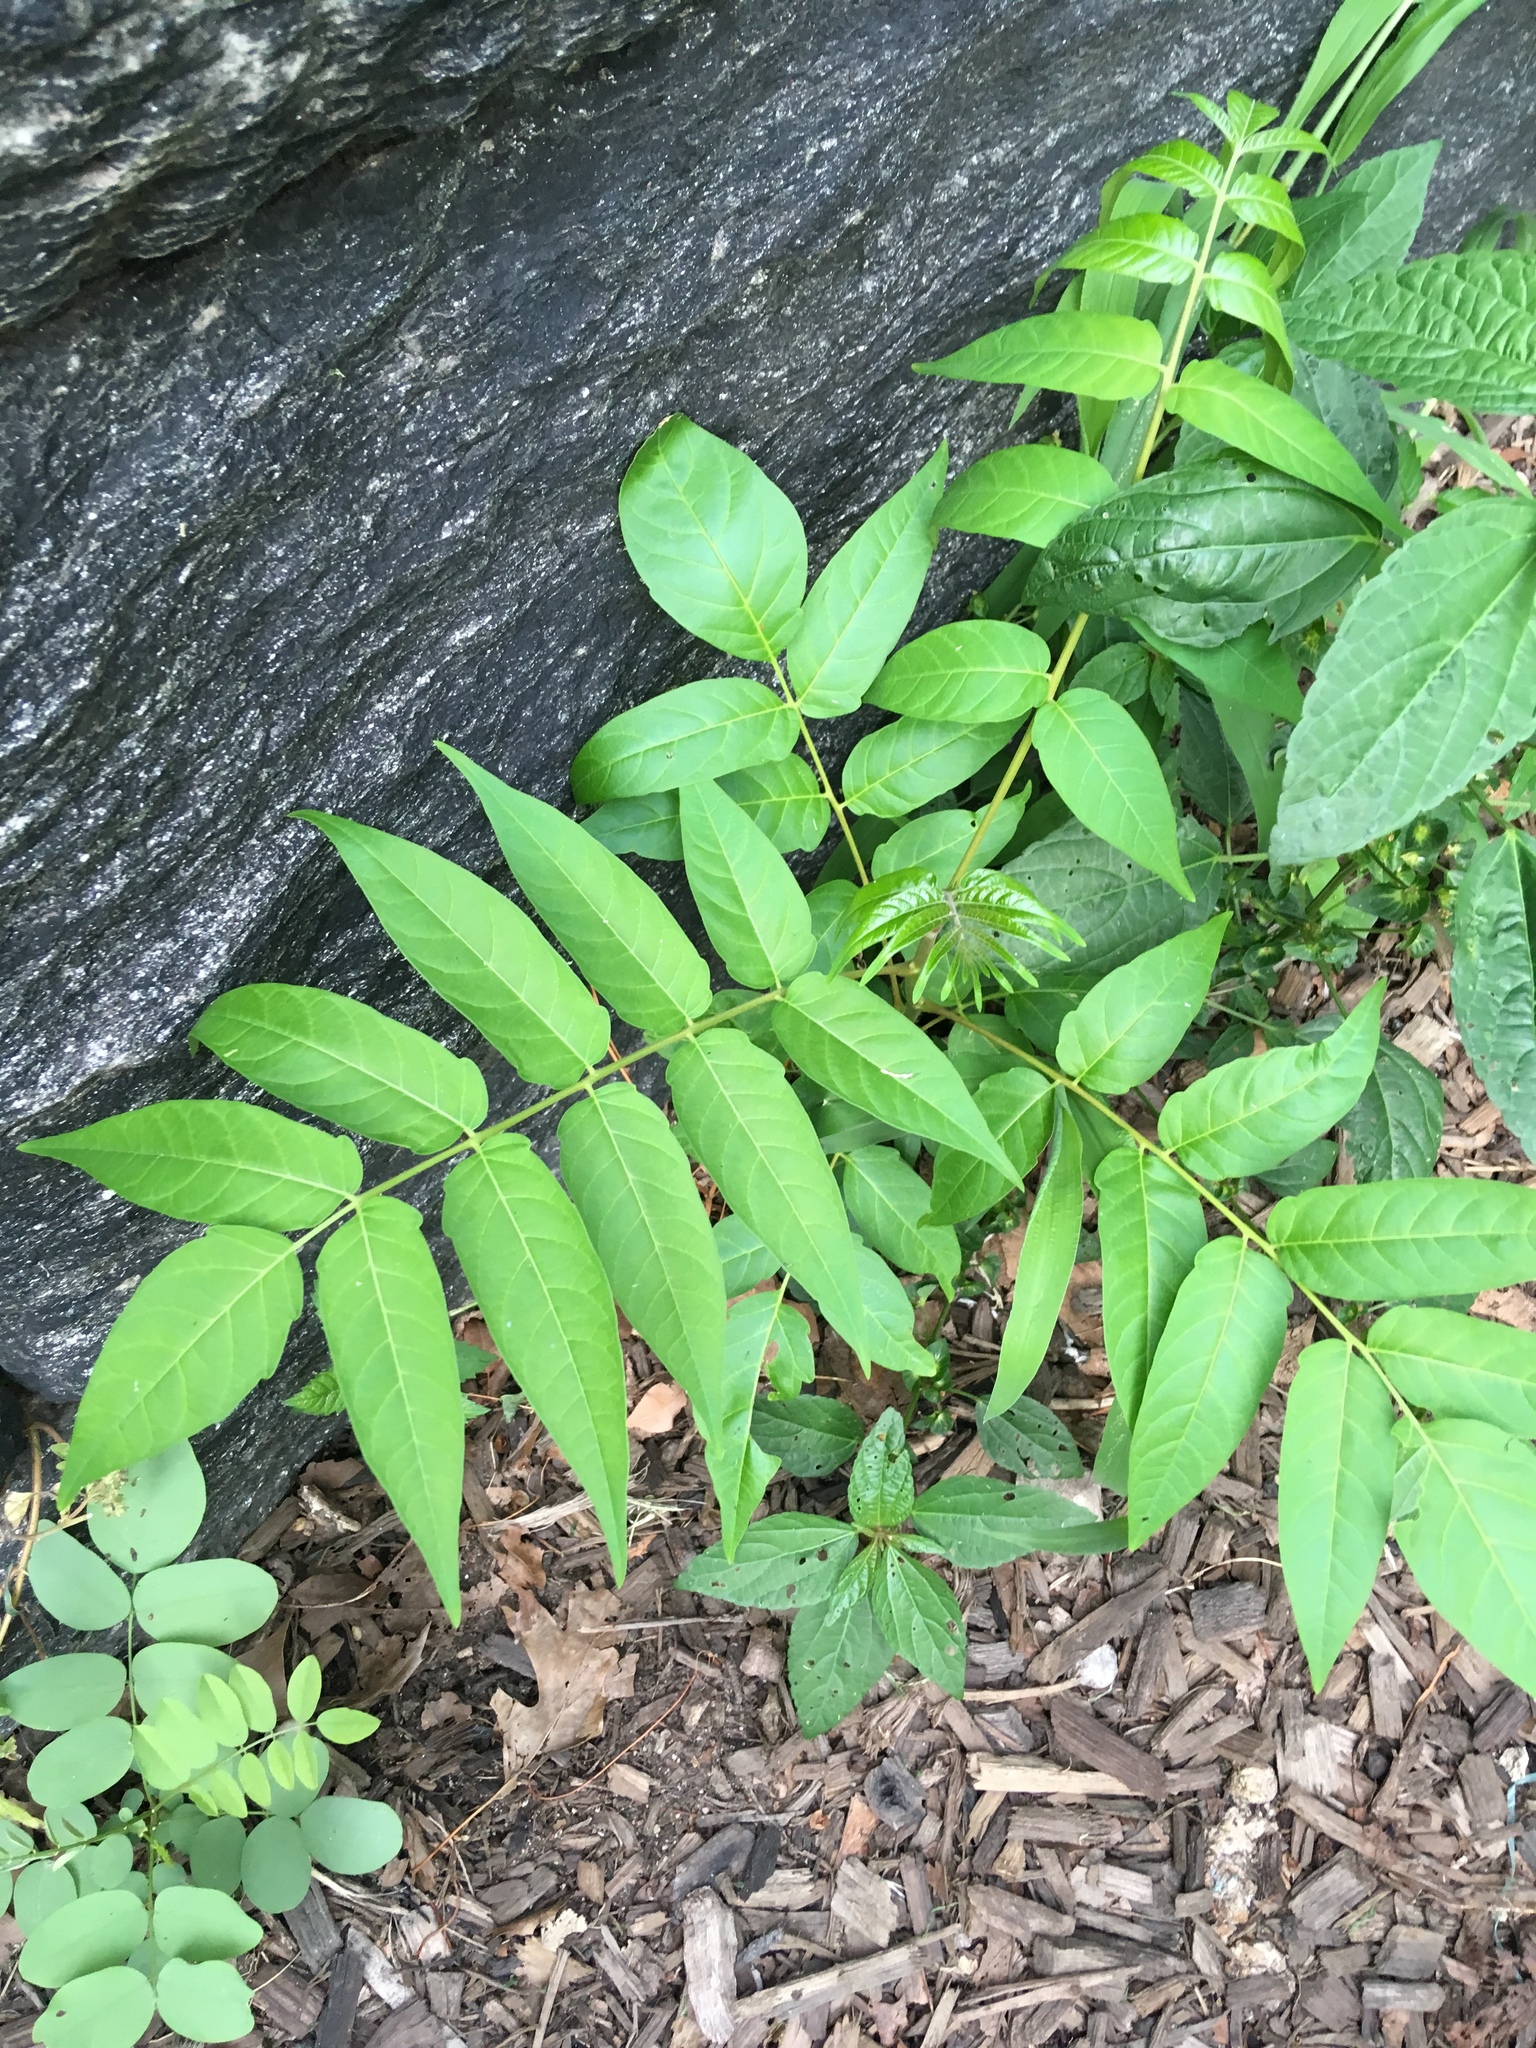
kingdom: Plantae
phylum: Tracheophyta
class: Magnoliopsida
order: Sapindales
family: Simaroubaceae
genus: Ailanthus
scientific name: Ailanthus altissima
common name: Tree-of-heaven
